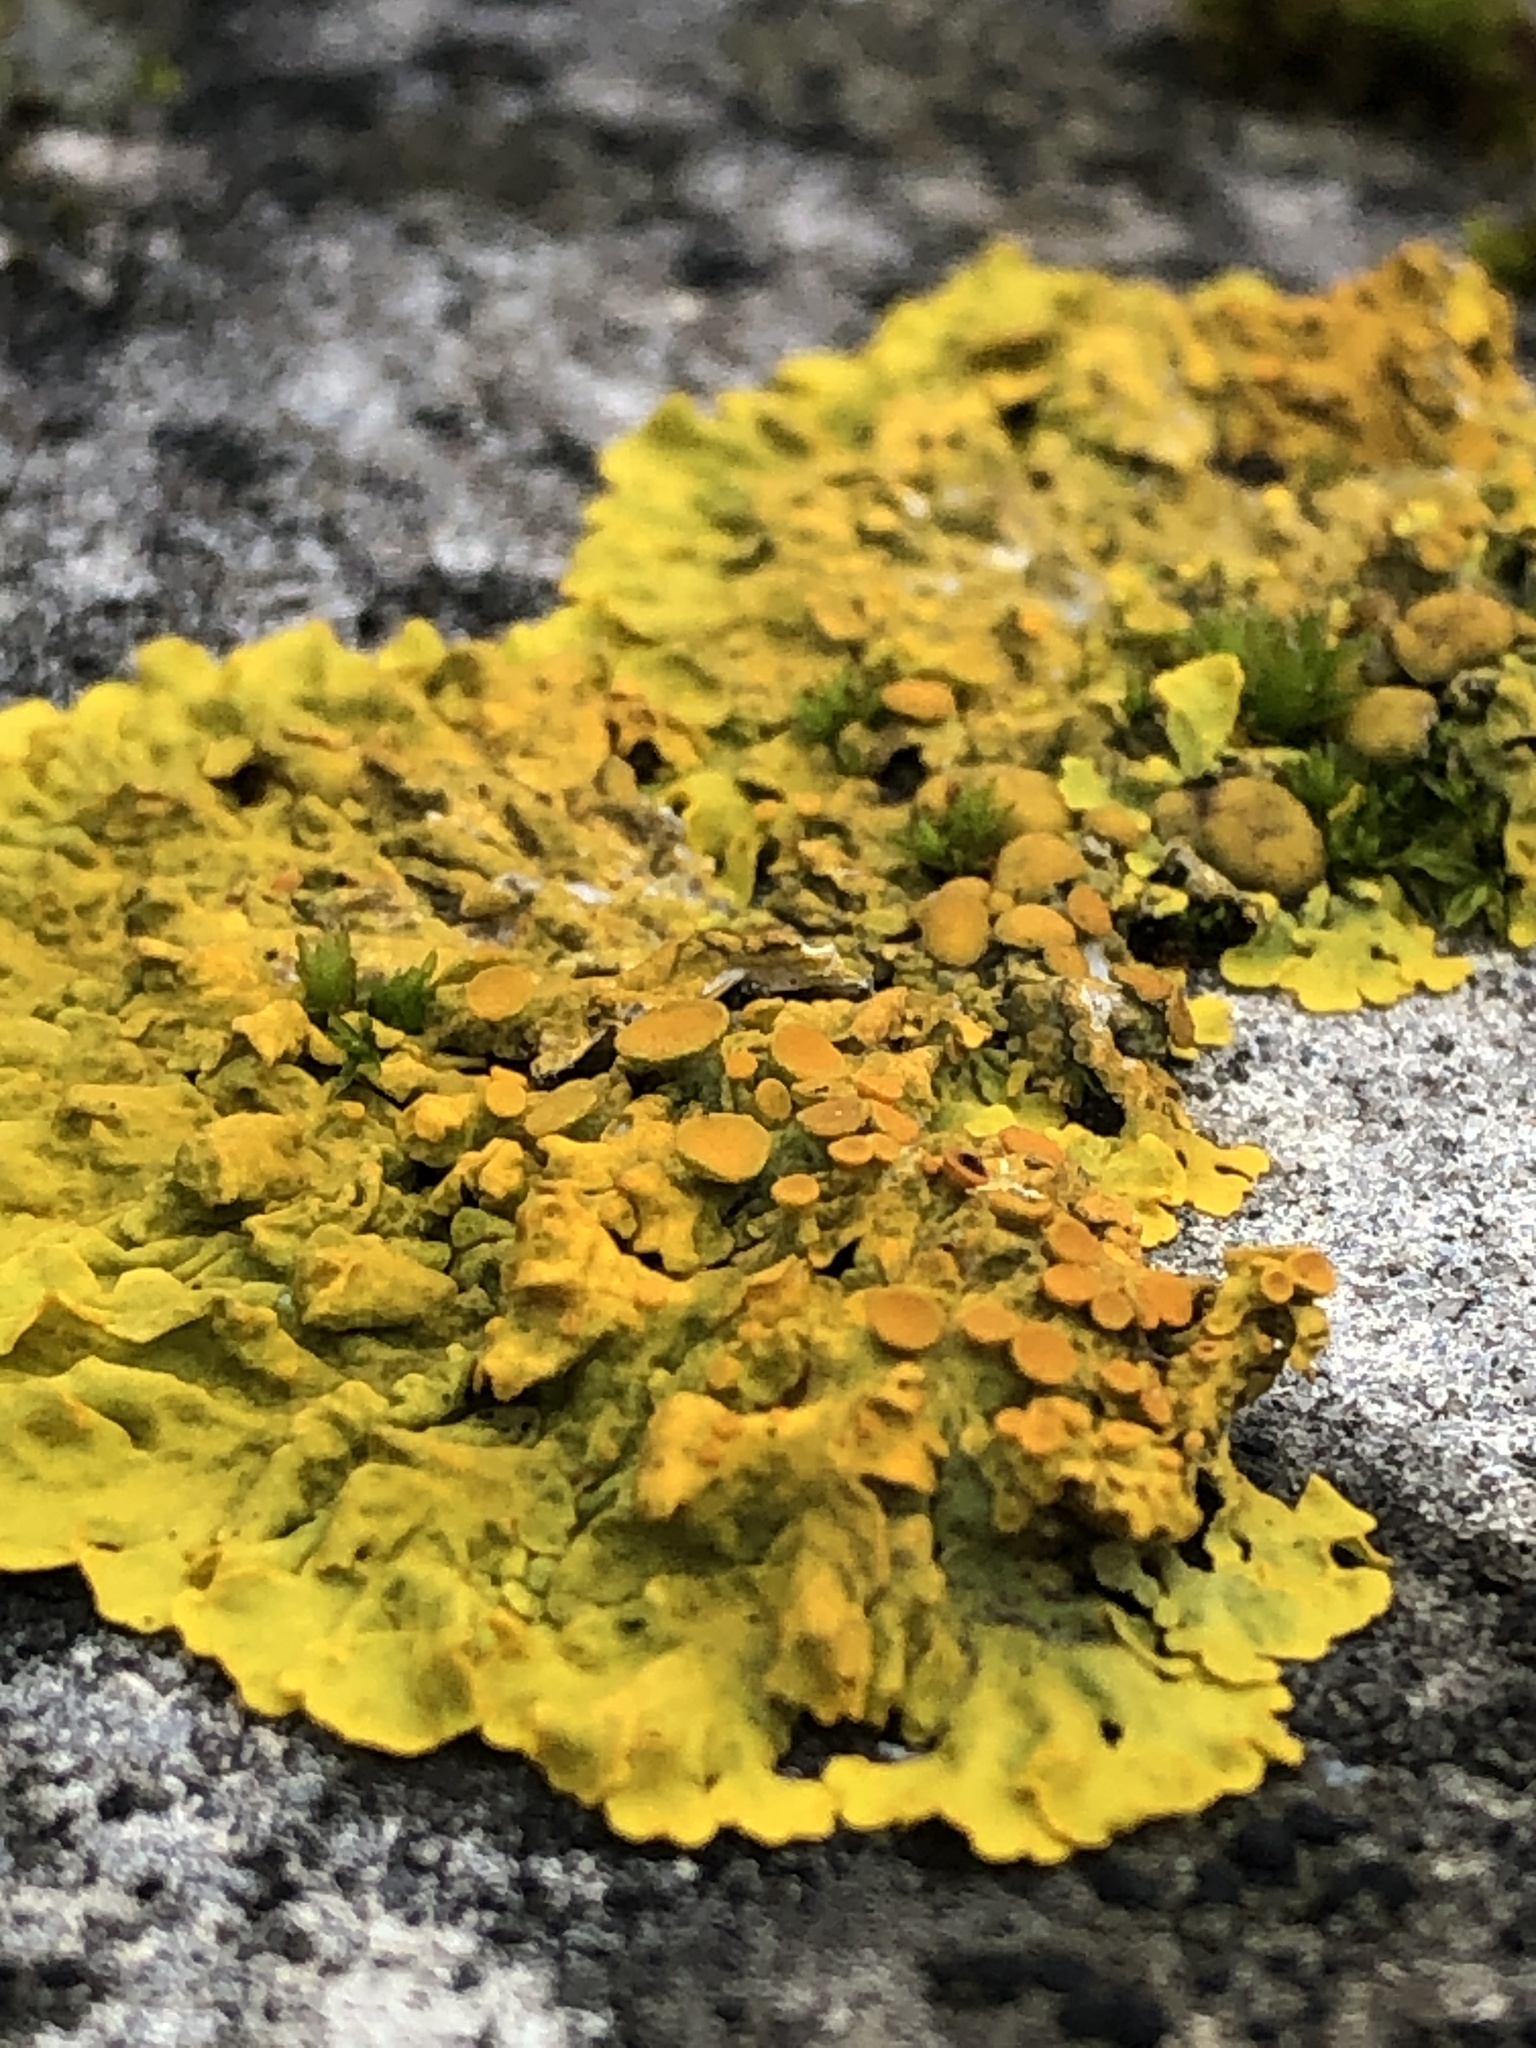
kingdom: Fungi
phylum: Ascomycota
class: Lecanoromycetes
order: Teloschistales
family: Teloschistaceae
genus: Xanthoria
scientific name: Xanthoria parietina
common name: Common orange lichen
